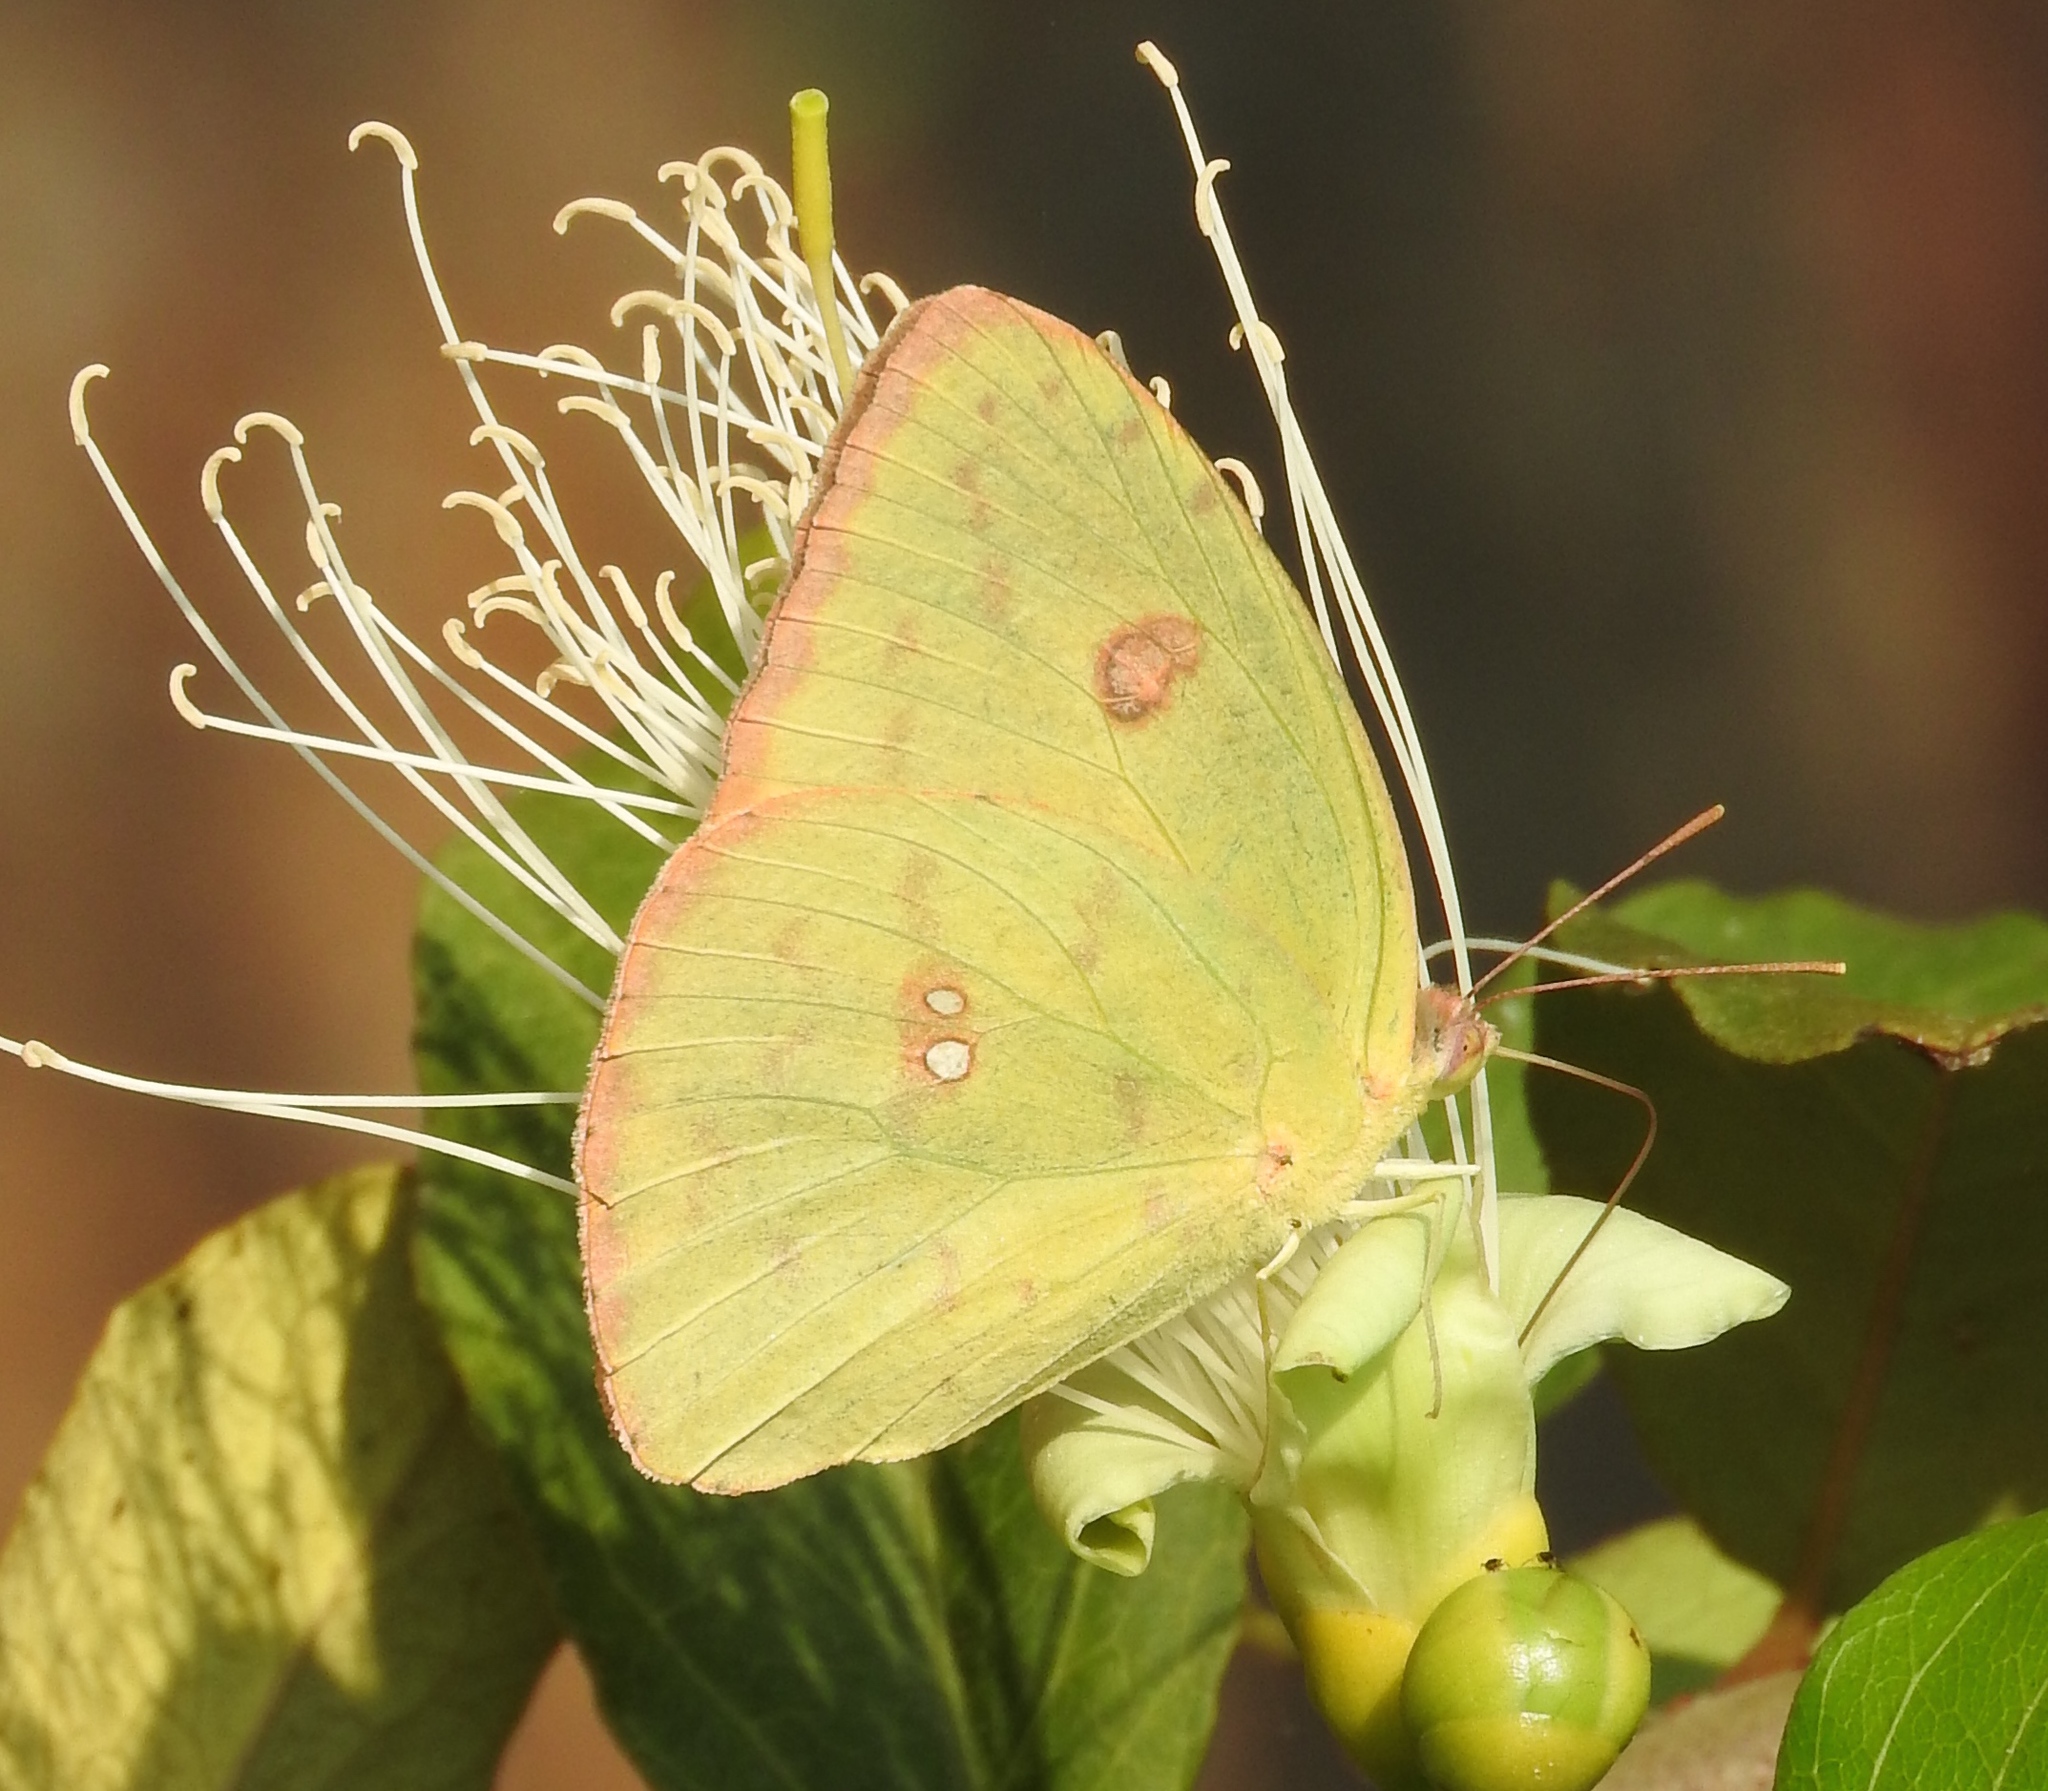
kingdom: Animalia
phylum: Arthropoda
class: Insecta
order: Lepidoptera
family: Pieridae
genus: Phoebis
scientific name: Phoebis marcellina
